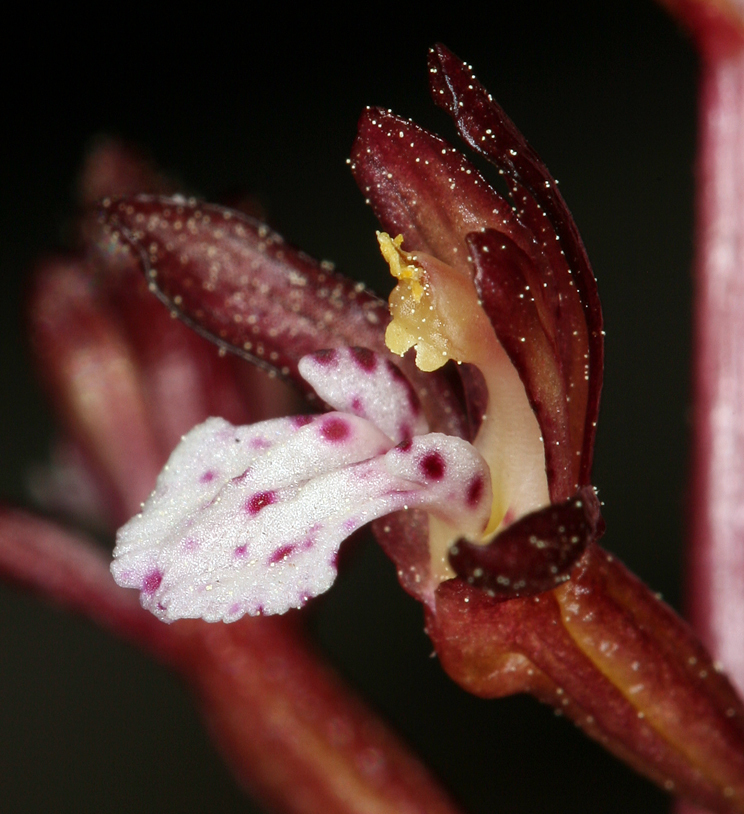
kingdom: Plantae
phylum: Tracheophyta
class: Liliopsida
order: Asparagales
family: Orchidaceae
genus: Corallorhiza
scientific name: Corallorhiza maculata
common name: Spotted coralroot
